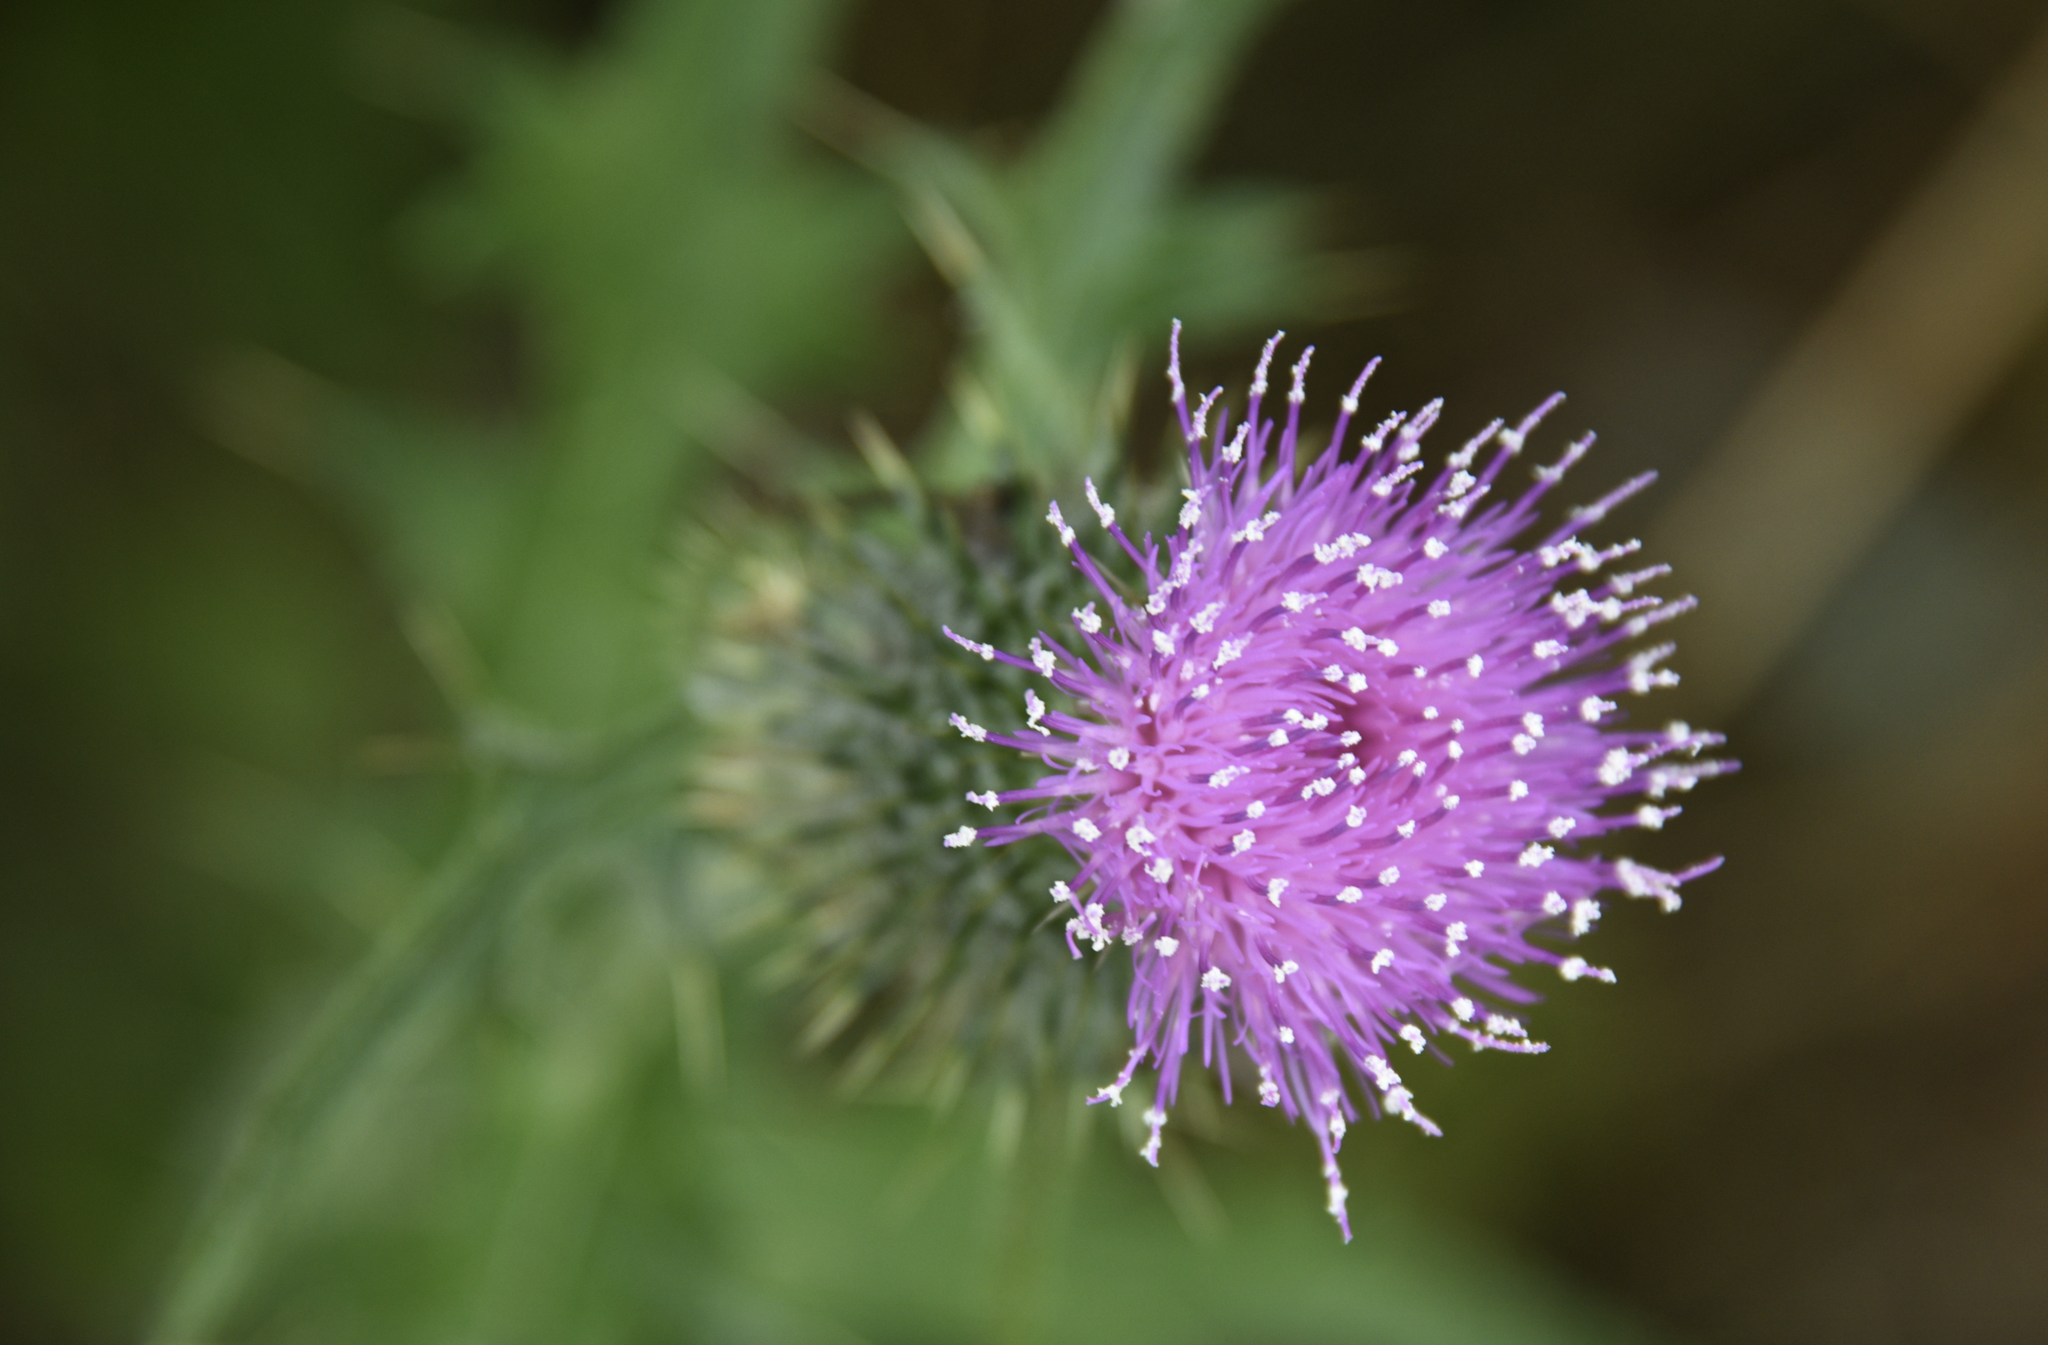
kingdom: Plantae
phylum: Tracheophyta
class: Magnoliopsida
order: Asterales
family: Asteraceae
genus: Cirsium
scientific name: Cirsium vulgare
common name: Bull thistle
